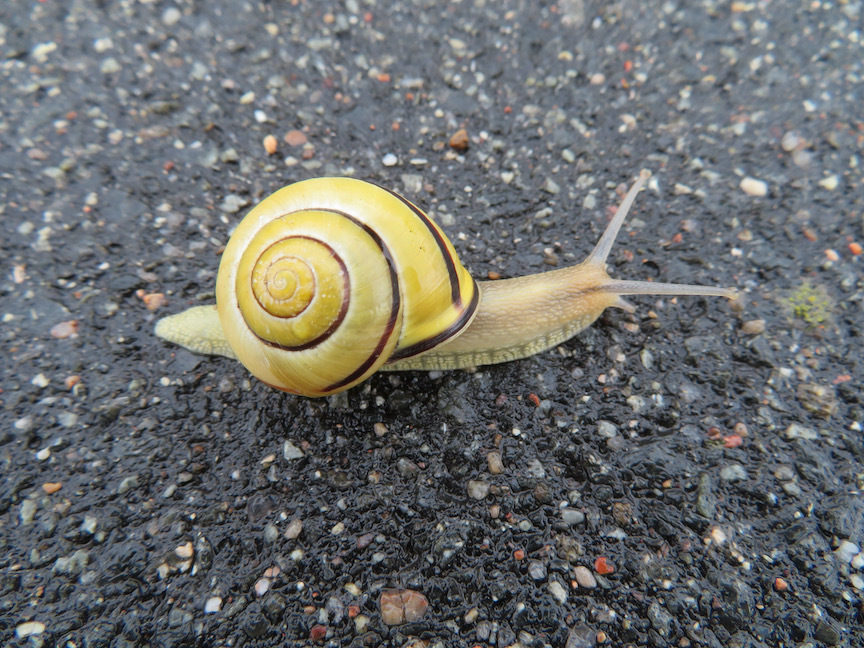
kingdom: Animalia
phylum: Mollusca
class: Gastropoda
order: Stylommatophora
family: Helicidae
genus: Cepaea
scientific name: Cepaea nemoralis
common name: Grovesnail
